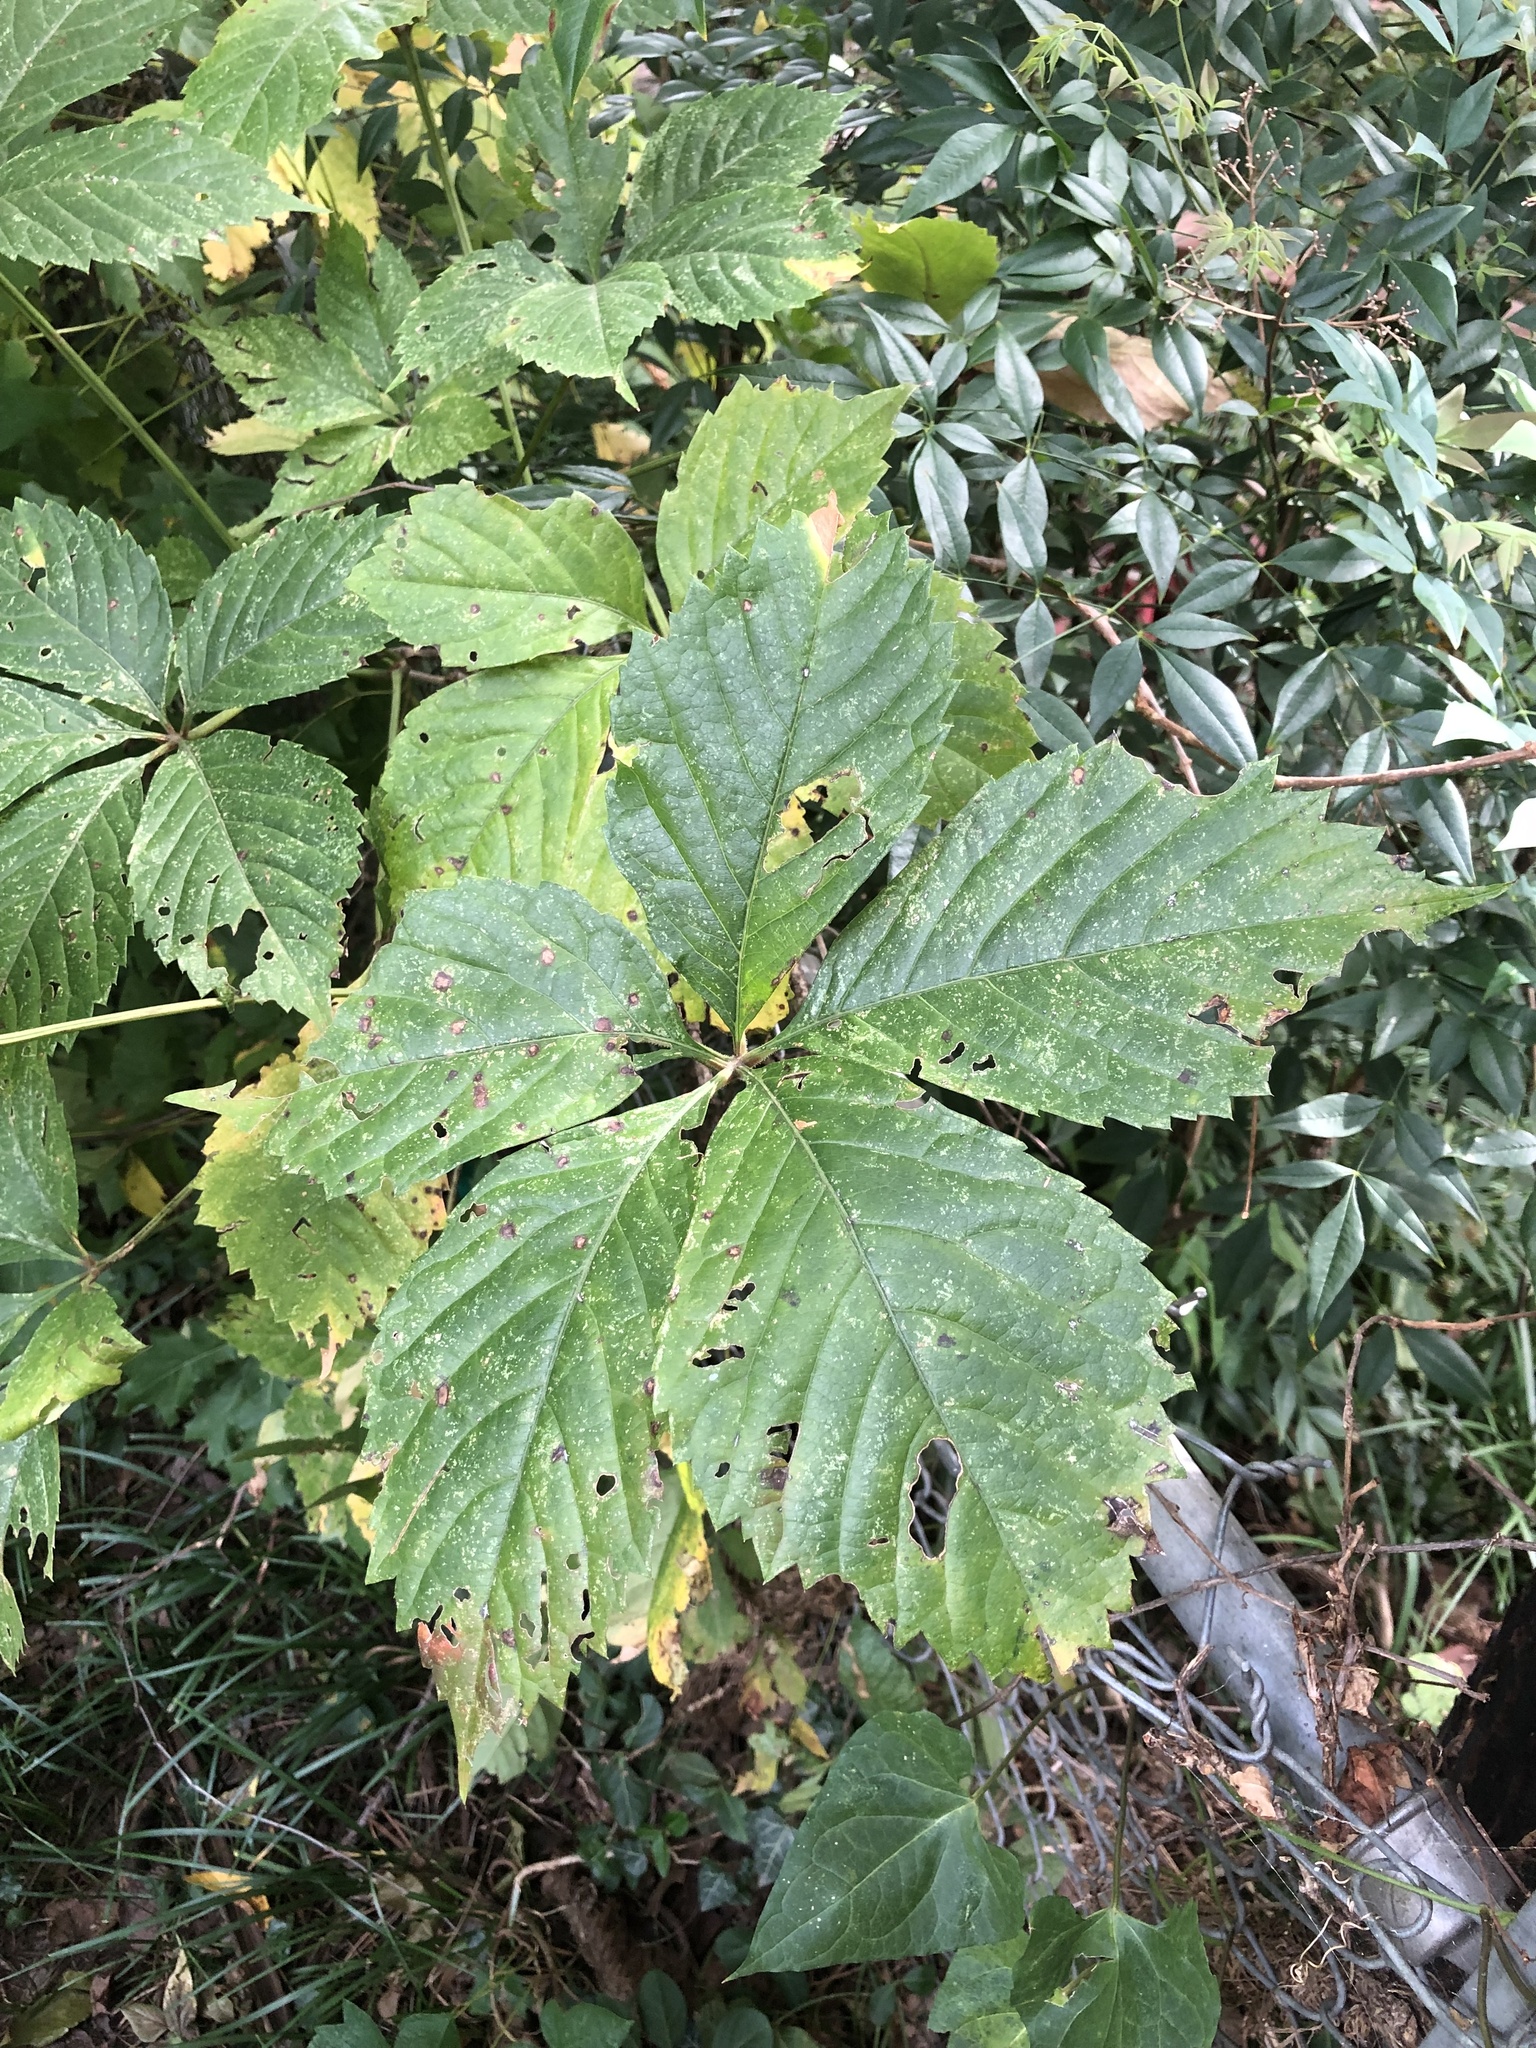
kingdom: Plantae
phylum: Tracheophyta
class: Magnoliopsida
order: Vitales
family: Vitaceae
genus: Parthenocissus
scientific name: Parthenocissus quinquefolia
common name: Virginia-creeper
